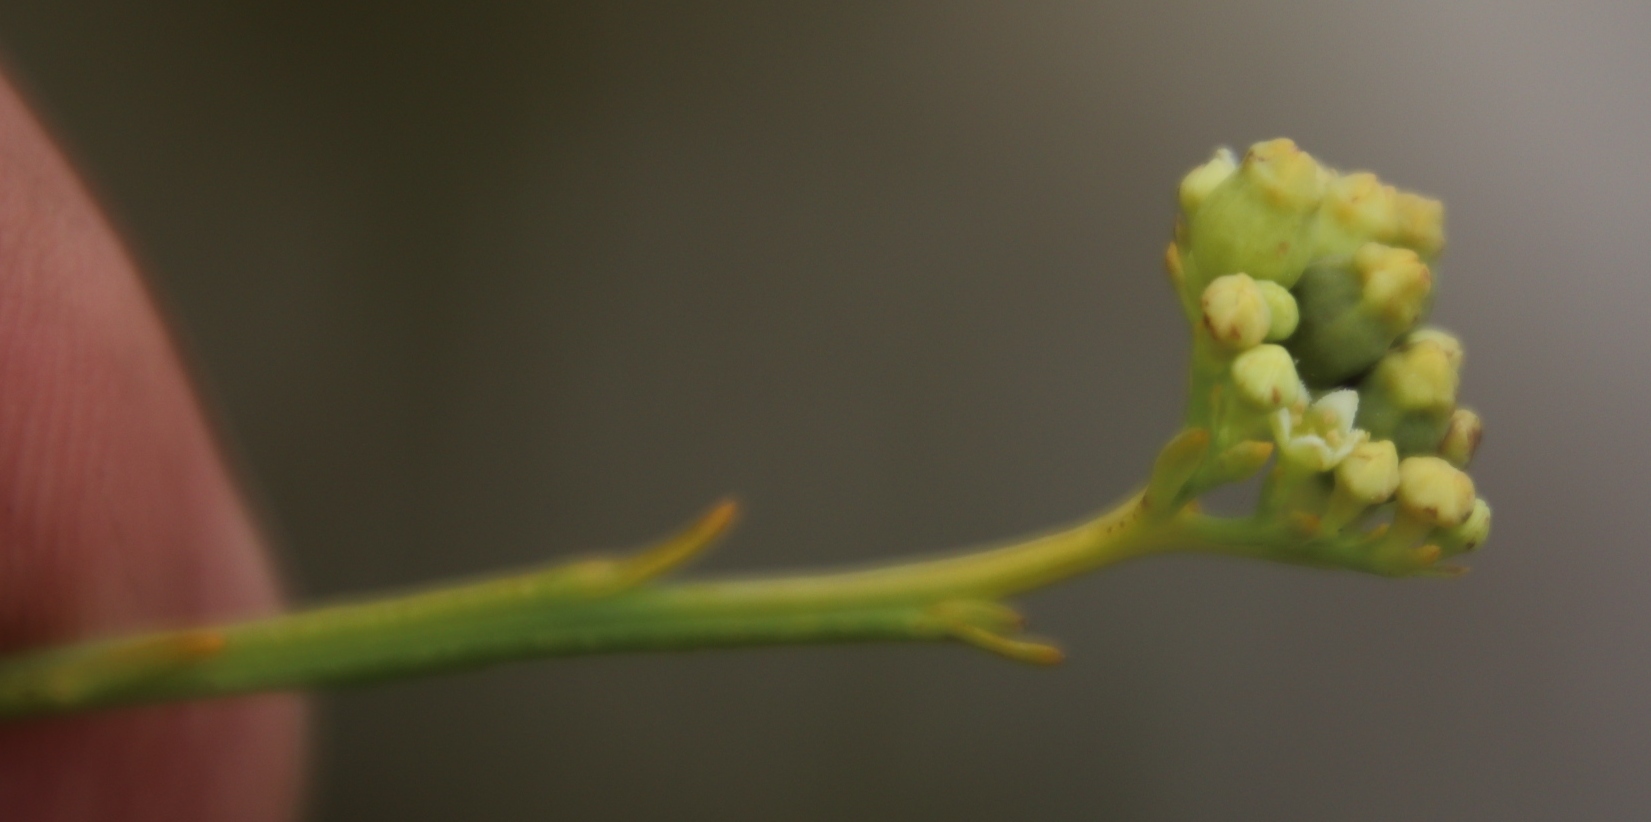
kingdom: Plantae
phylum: Tracheophyta
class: Magnoliopsida
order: Santalales
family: Thesiaceae
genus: Thesium
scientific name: Thesium strictum
